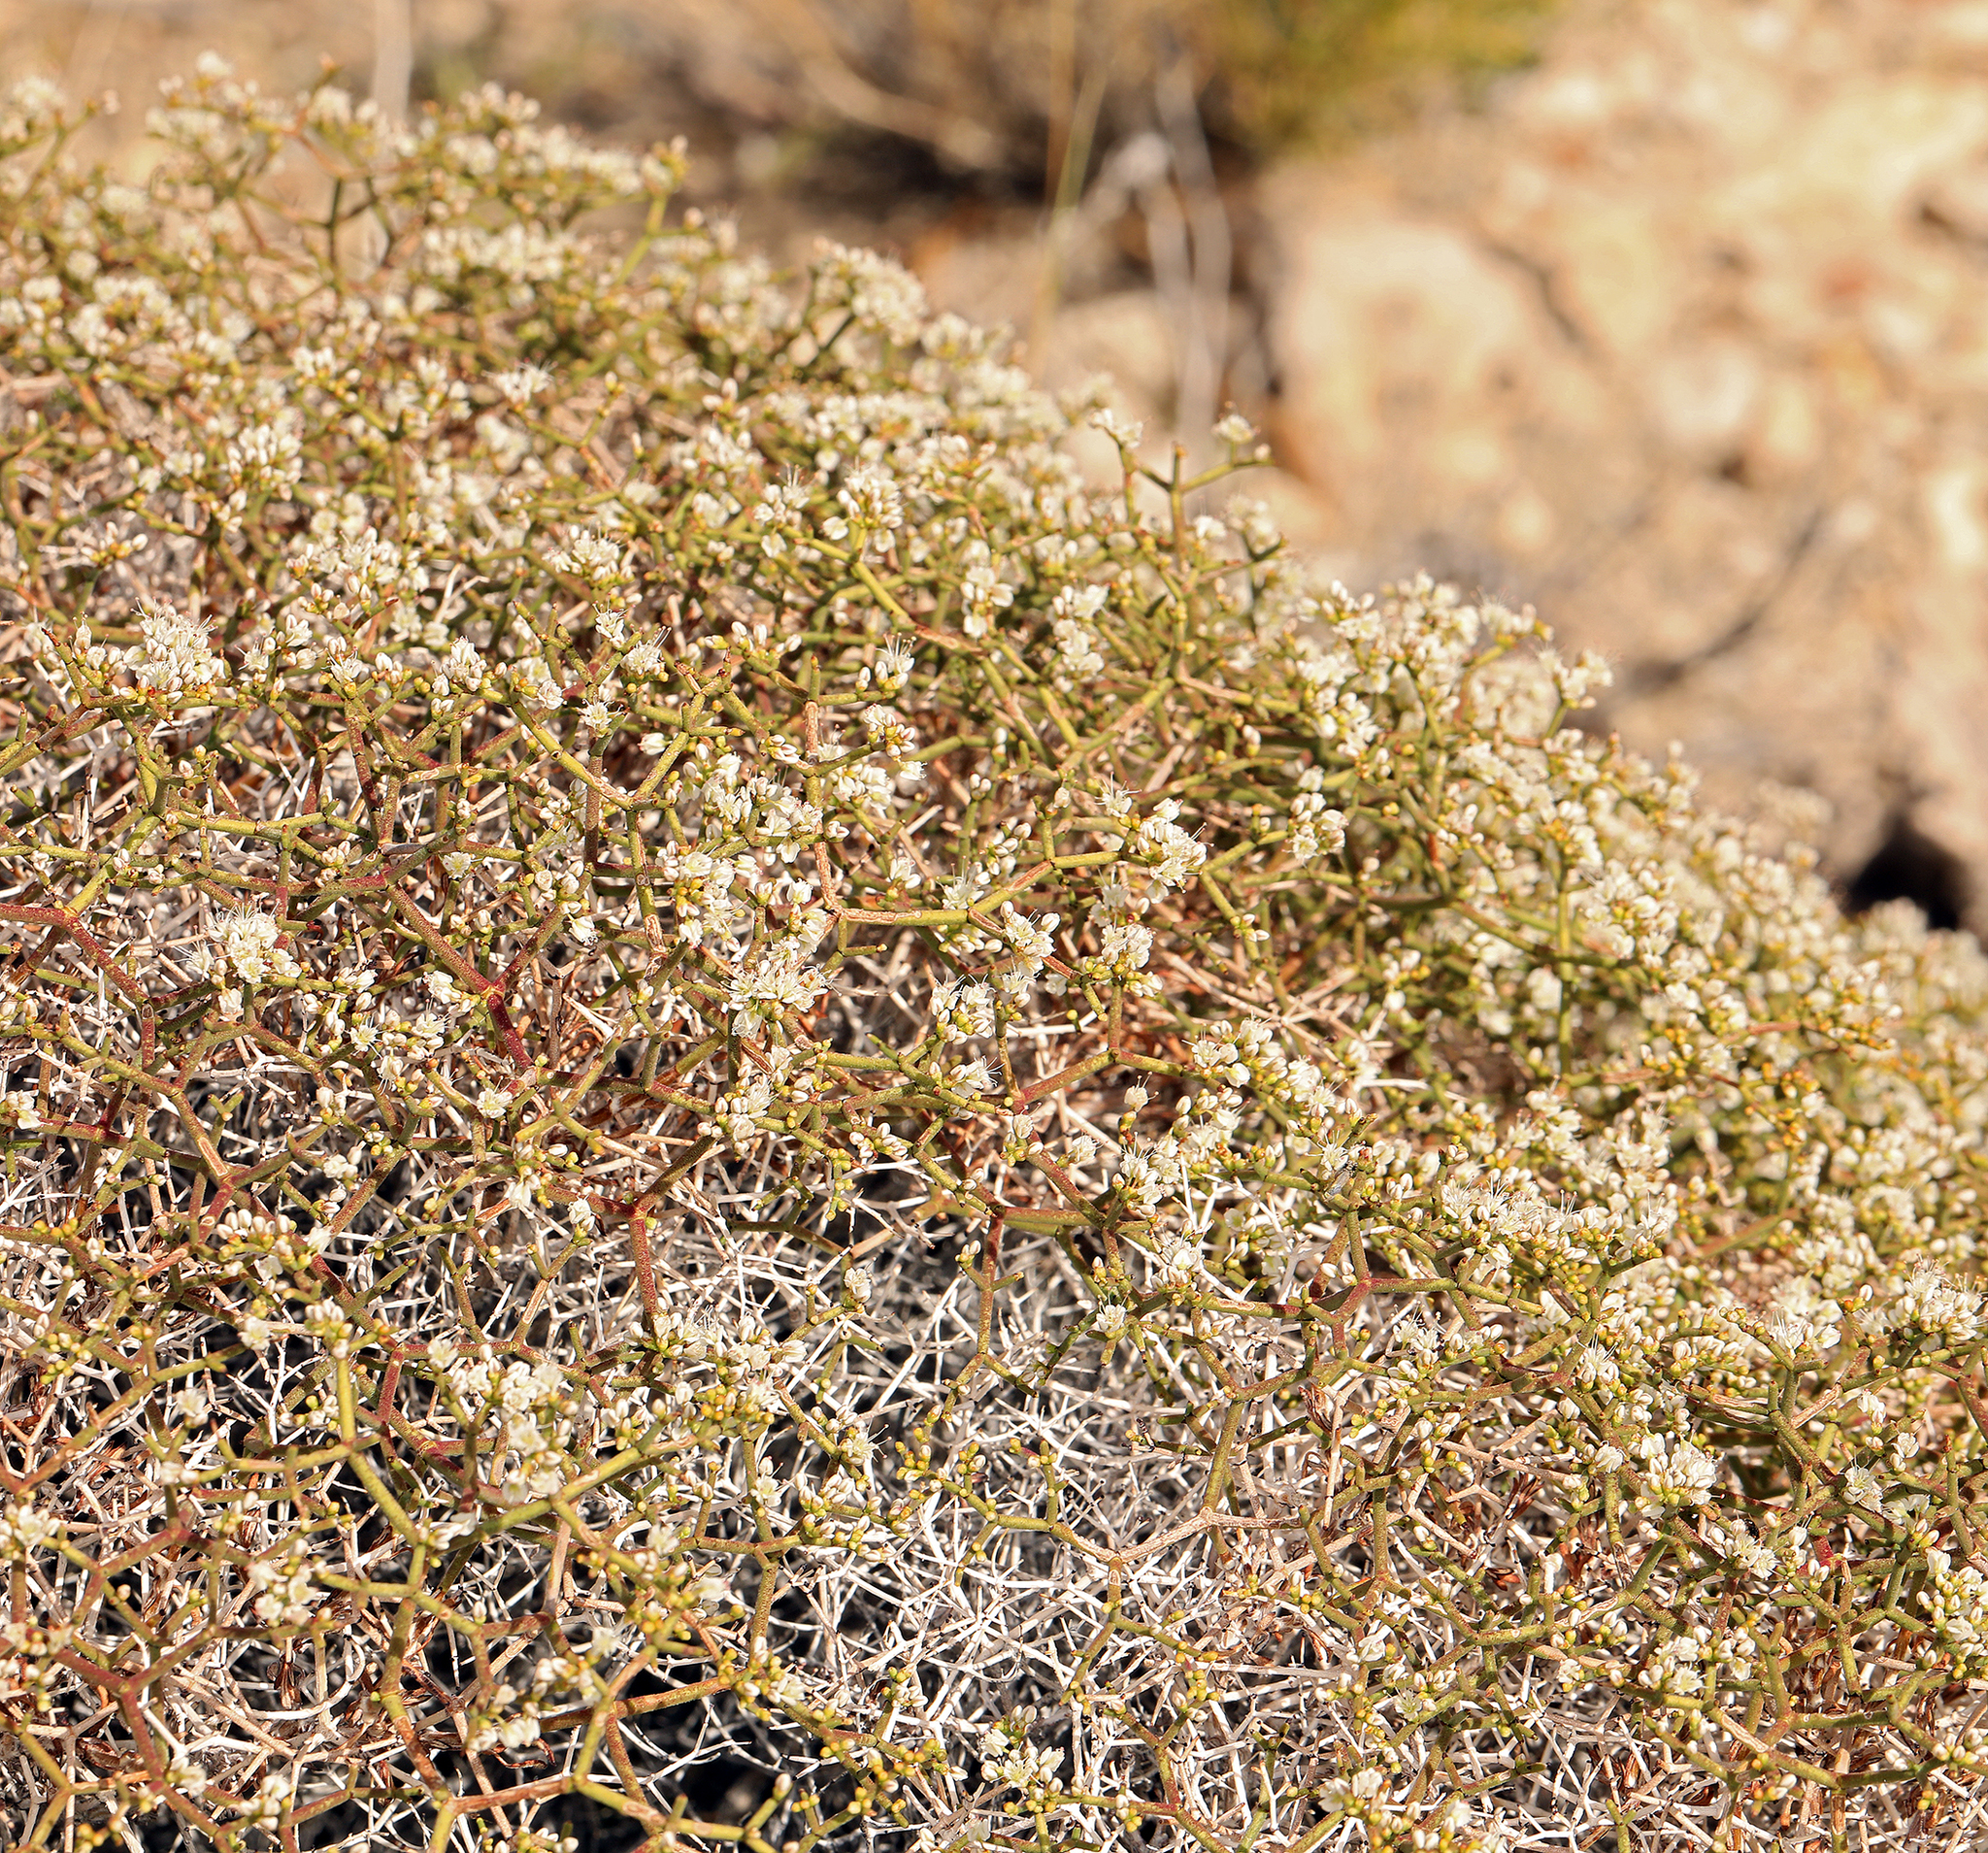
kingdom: Plantae
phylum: Tracheophyta
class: Magnoliopsida
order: Caryophyllales
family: Polygonaceae
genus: Eriogonum
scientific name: Eriogonum heermannii
